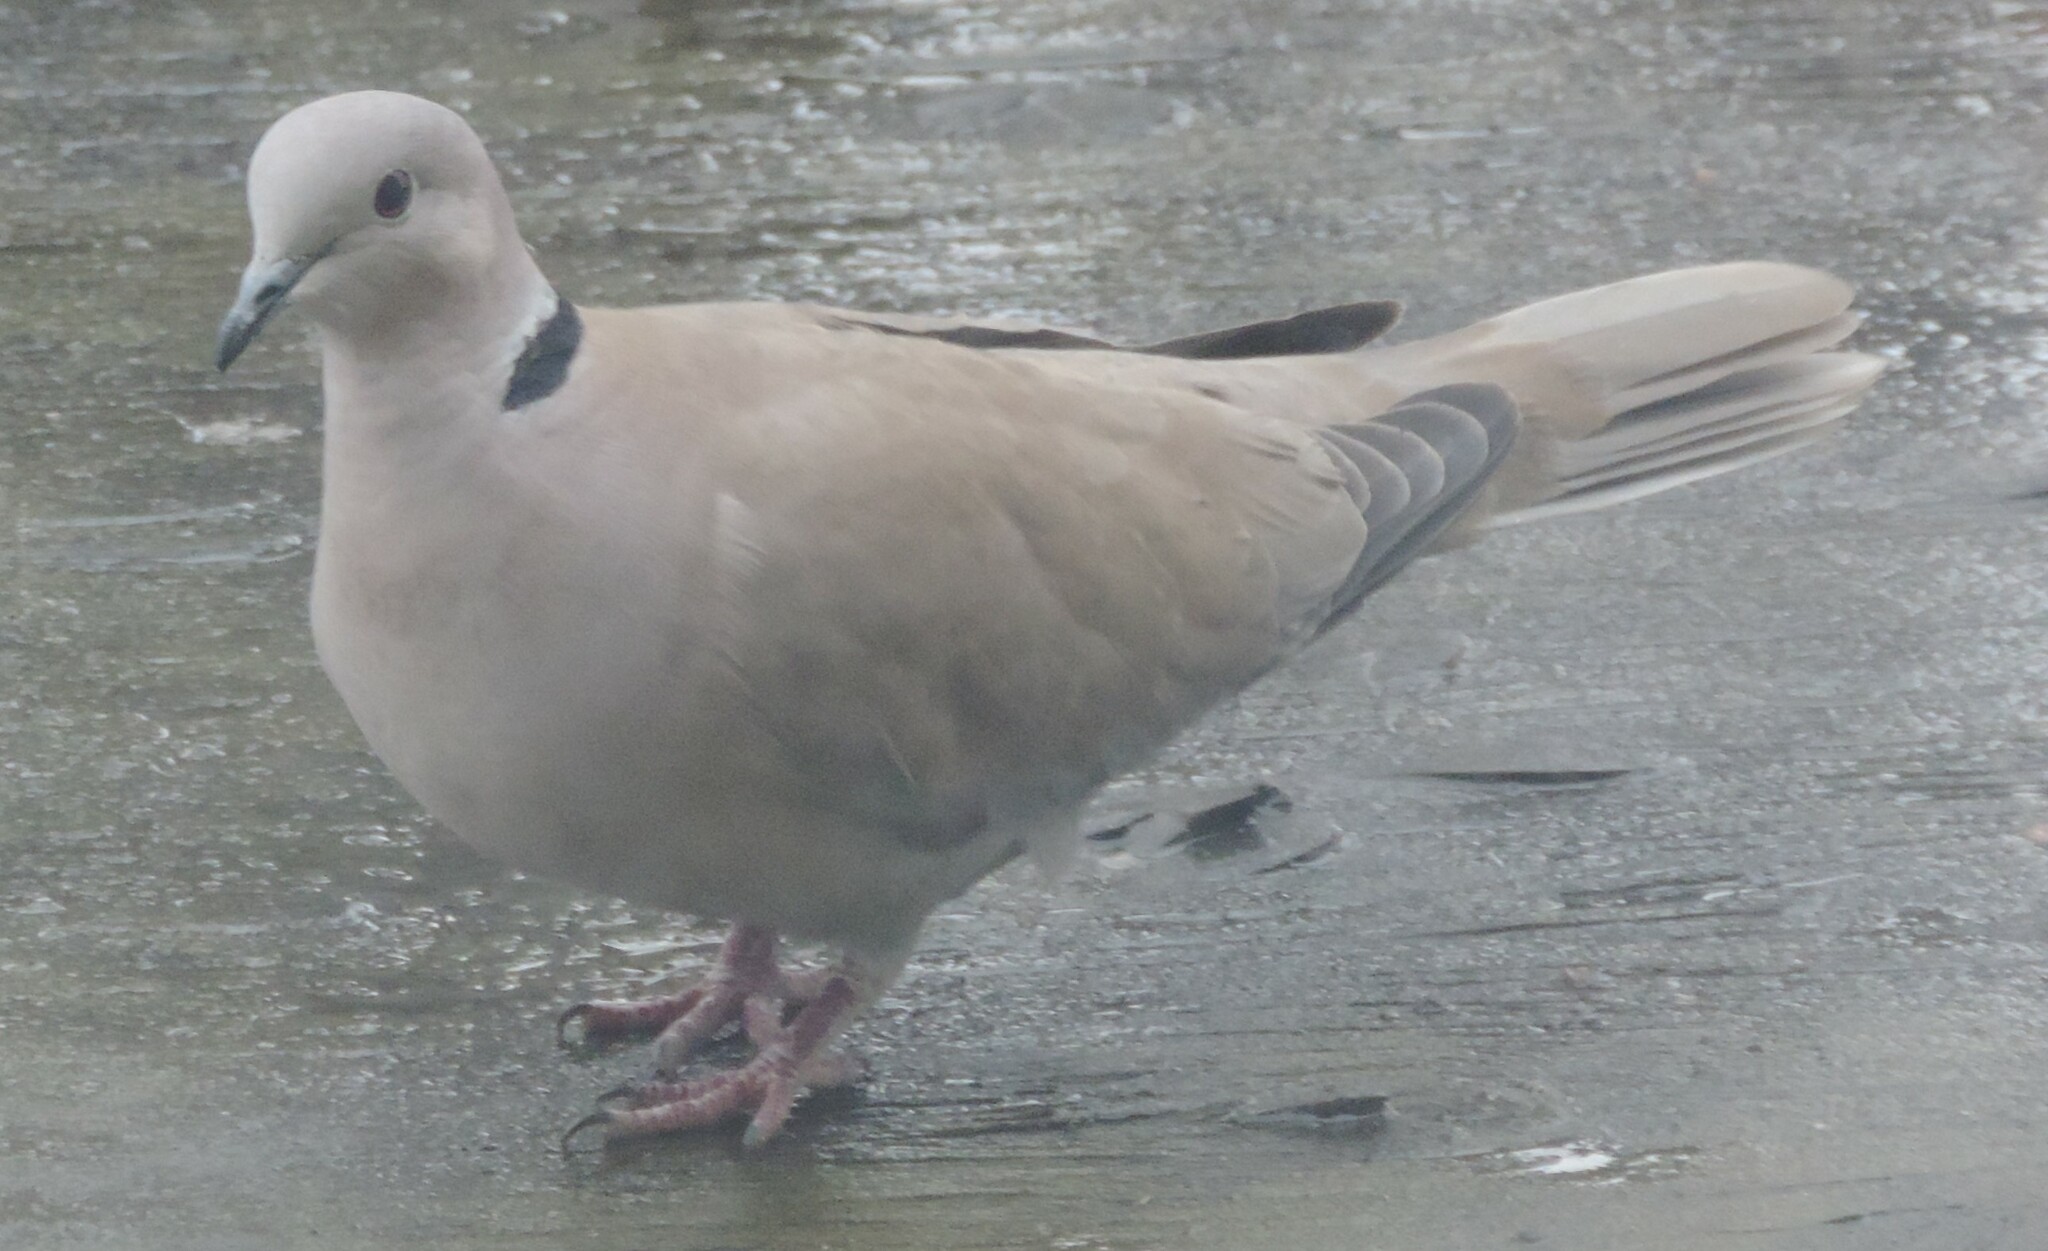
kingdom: Animalia
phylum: Chordata
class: Aves
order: Columbiformes
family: Columbidae
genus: Streptopelia
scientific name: Streptopelia decaocto
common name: Eurasian collared dove
